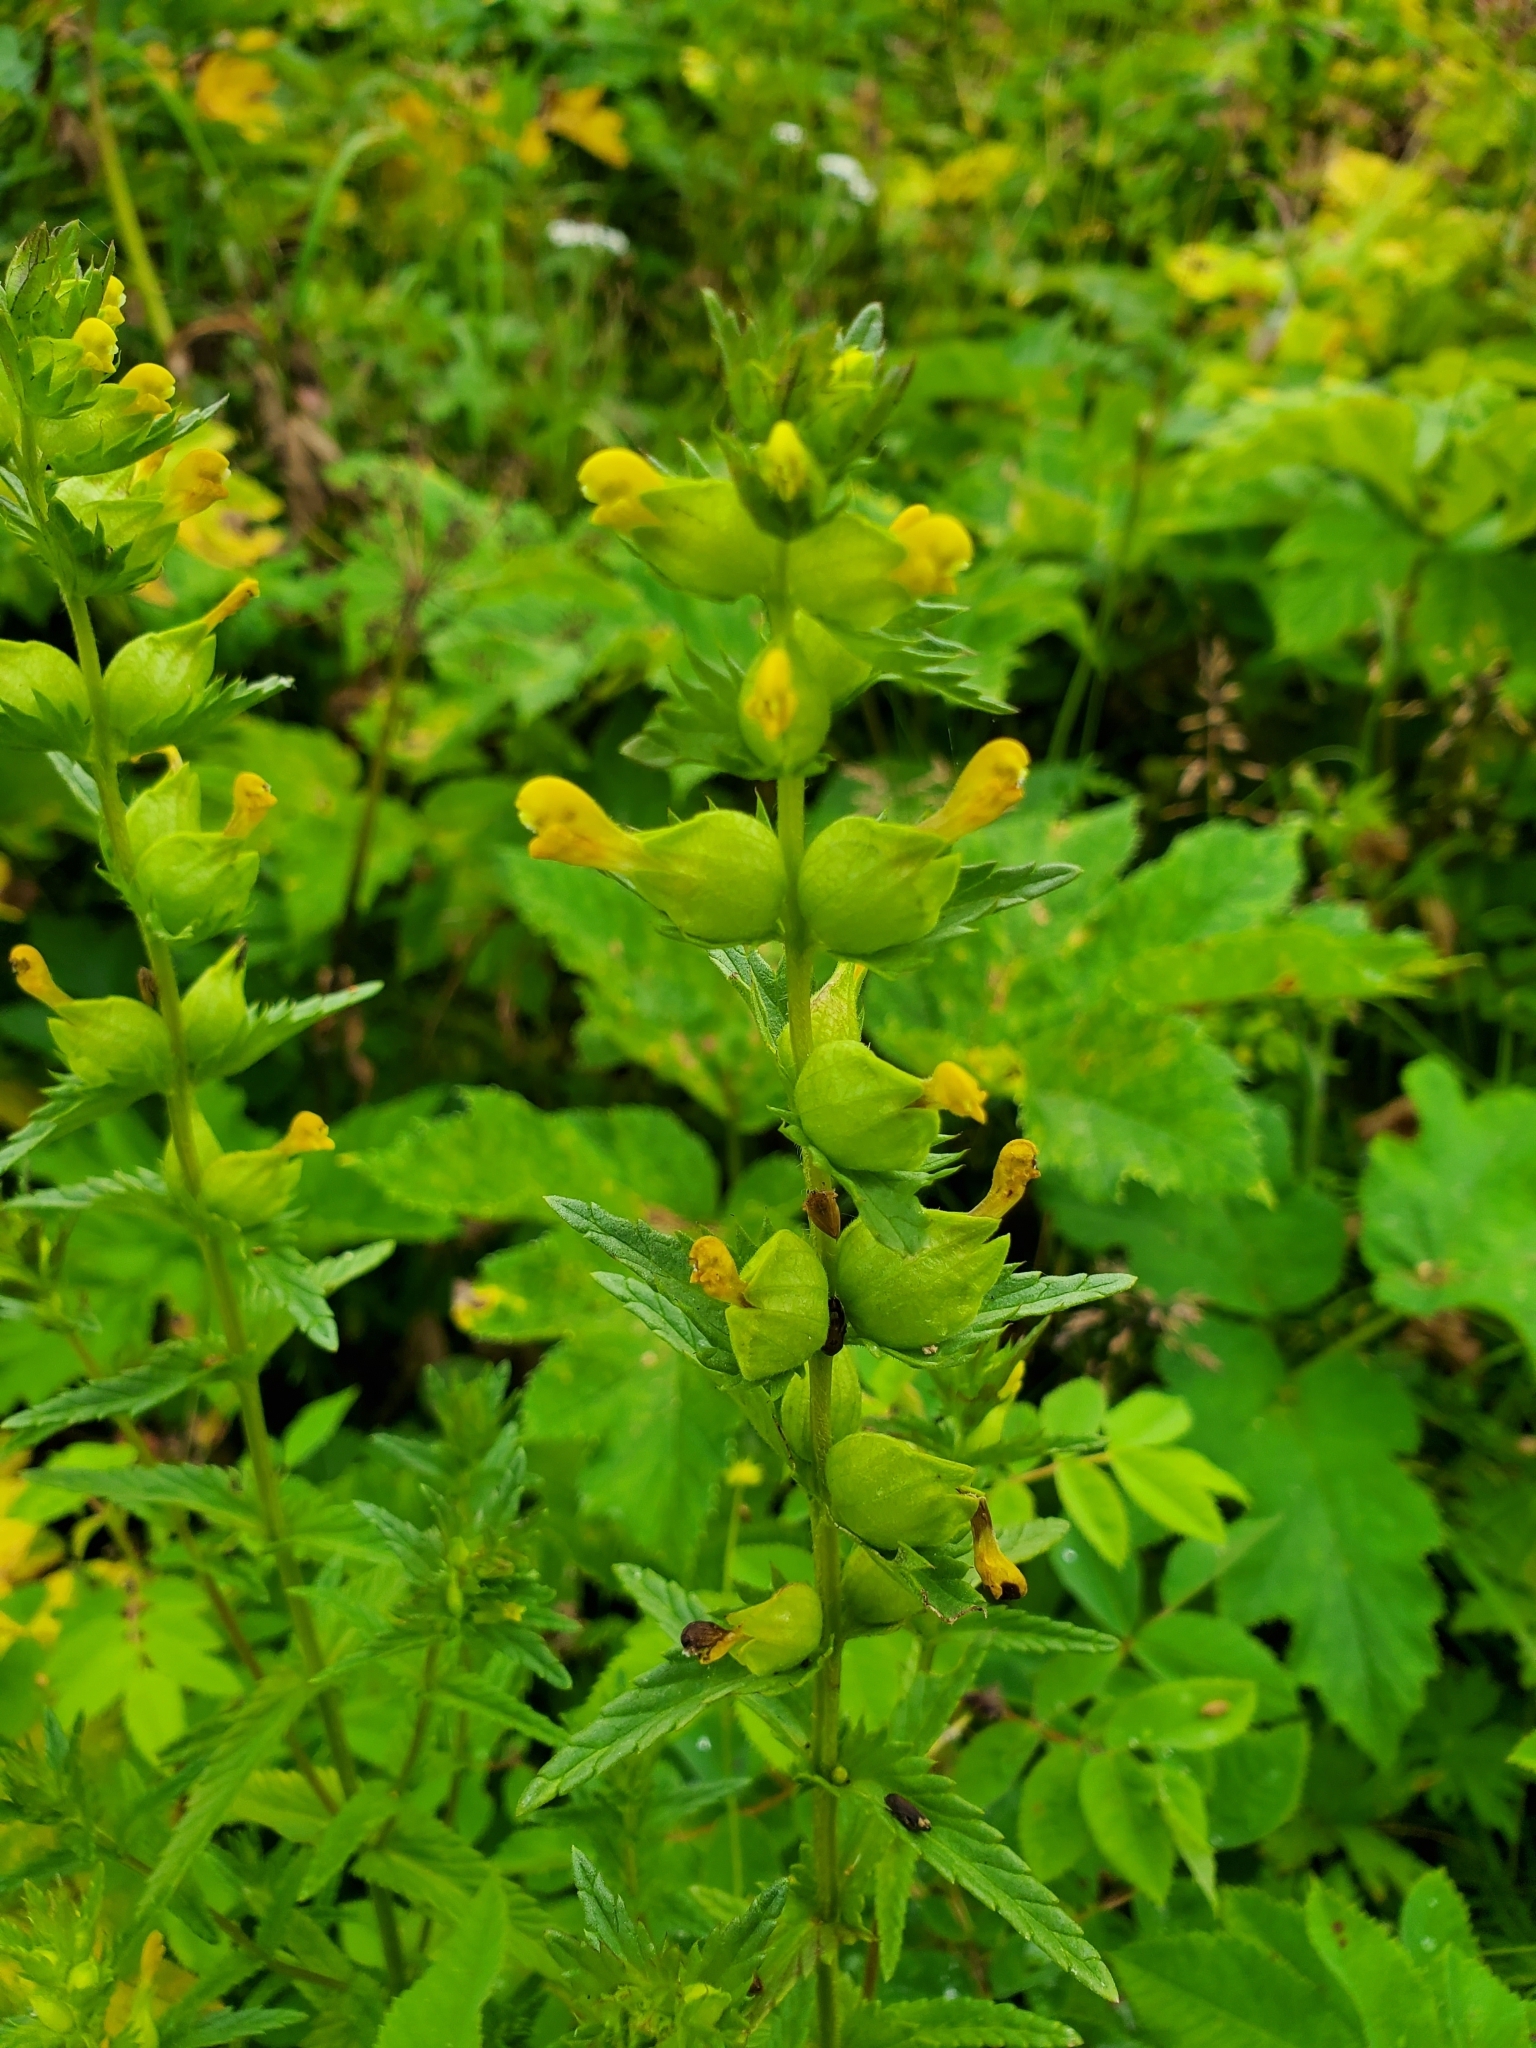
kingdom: Plantae
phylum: Tracheophyta
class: Magnoliopsida
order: Lamiales
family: Orobanchaceae
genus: Rhinanthus
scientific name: Rhinanthus minor
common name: Yellow-rattle
